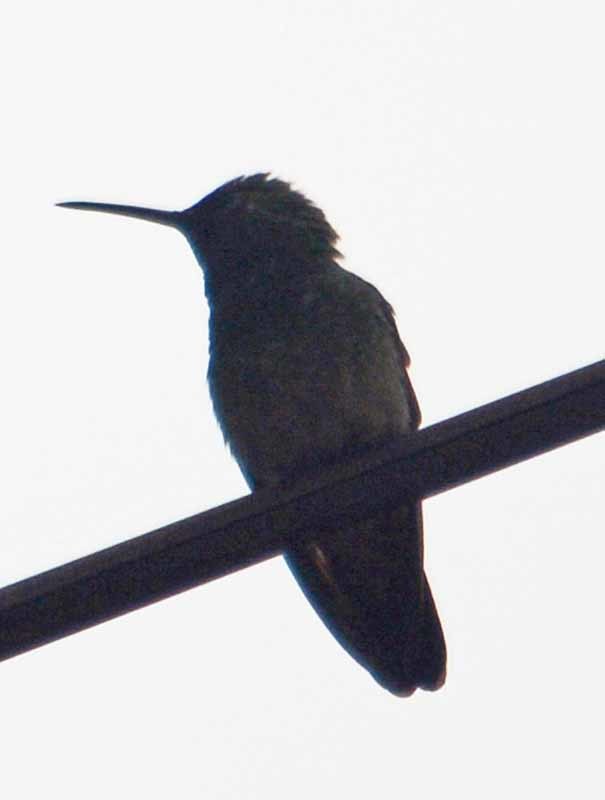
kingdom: Animalia
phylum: Chordata
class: Aves
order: Apodiformes
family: Trochilidae
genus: Saucerottia
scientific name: Saucerottia beryllina
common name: Berylline hummingbird
